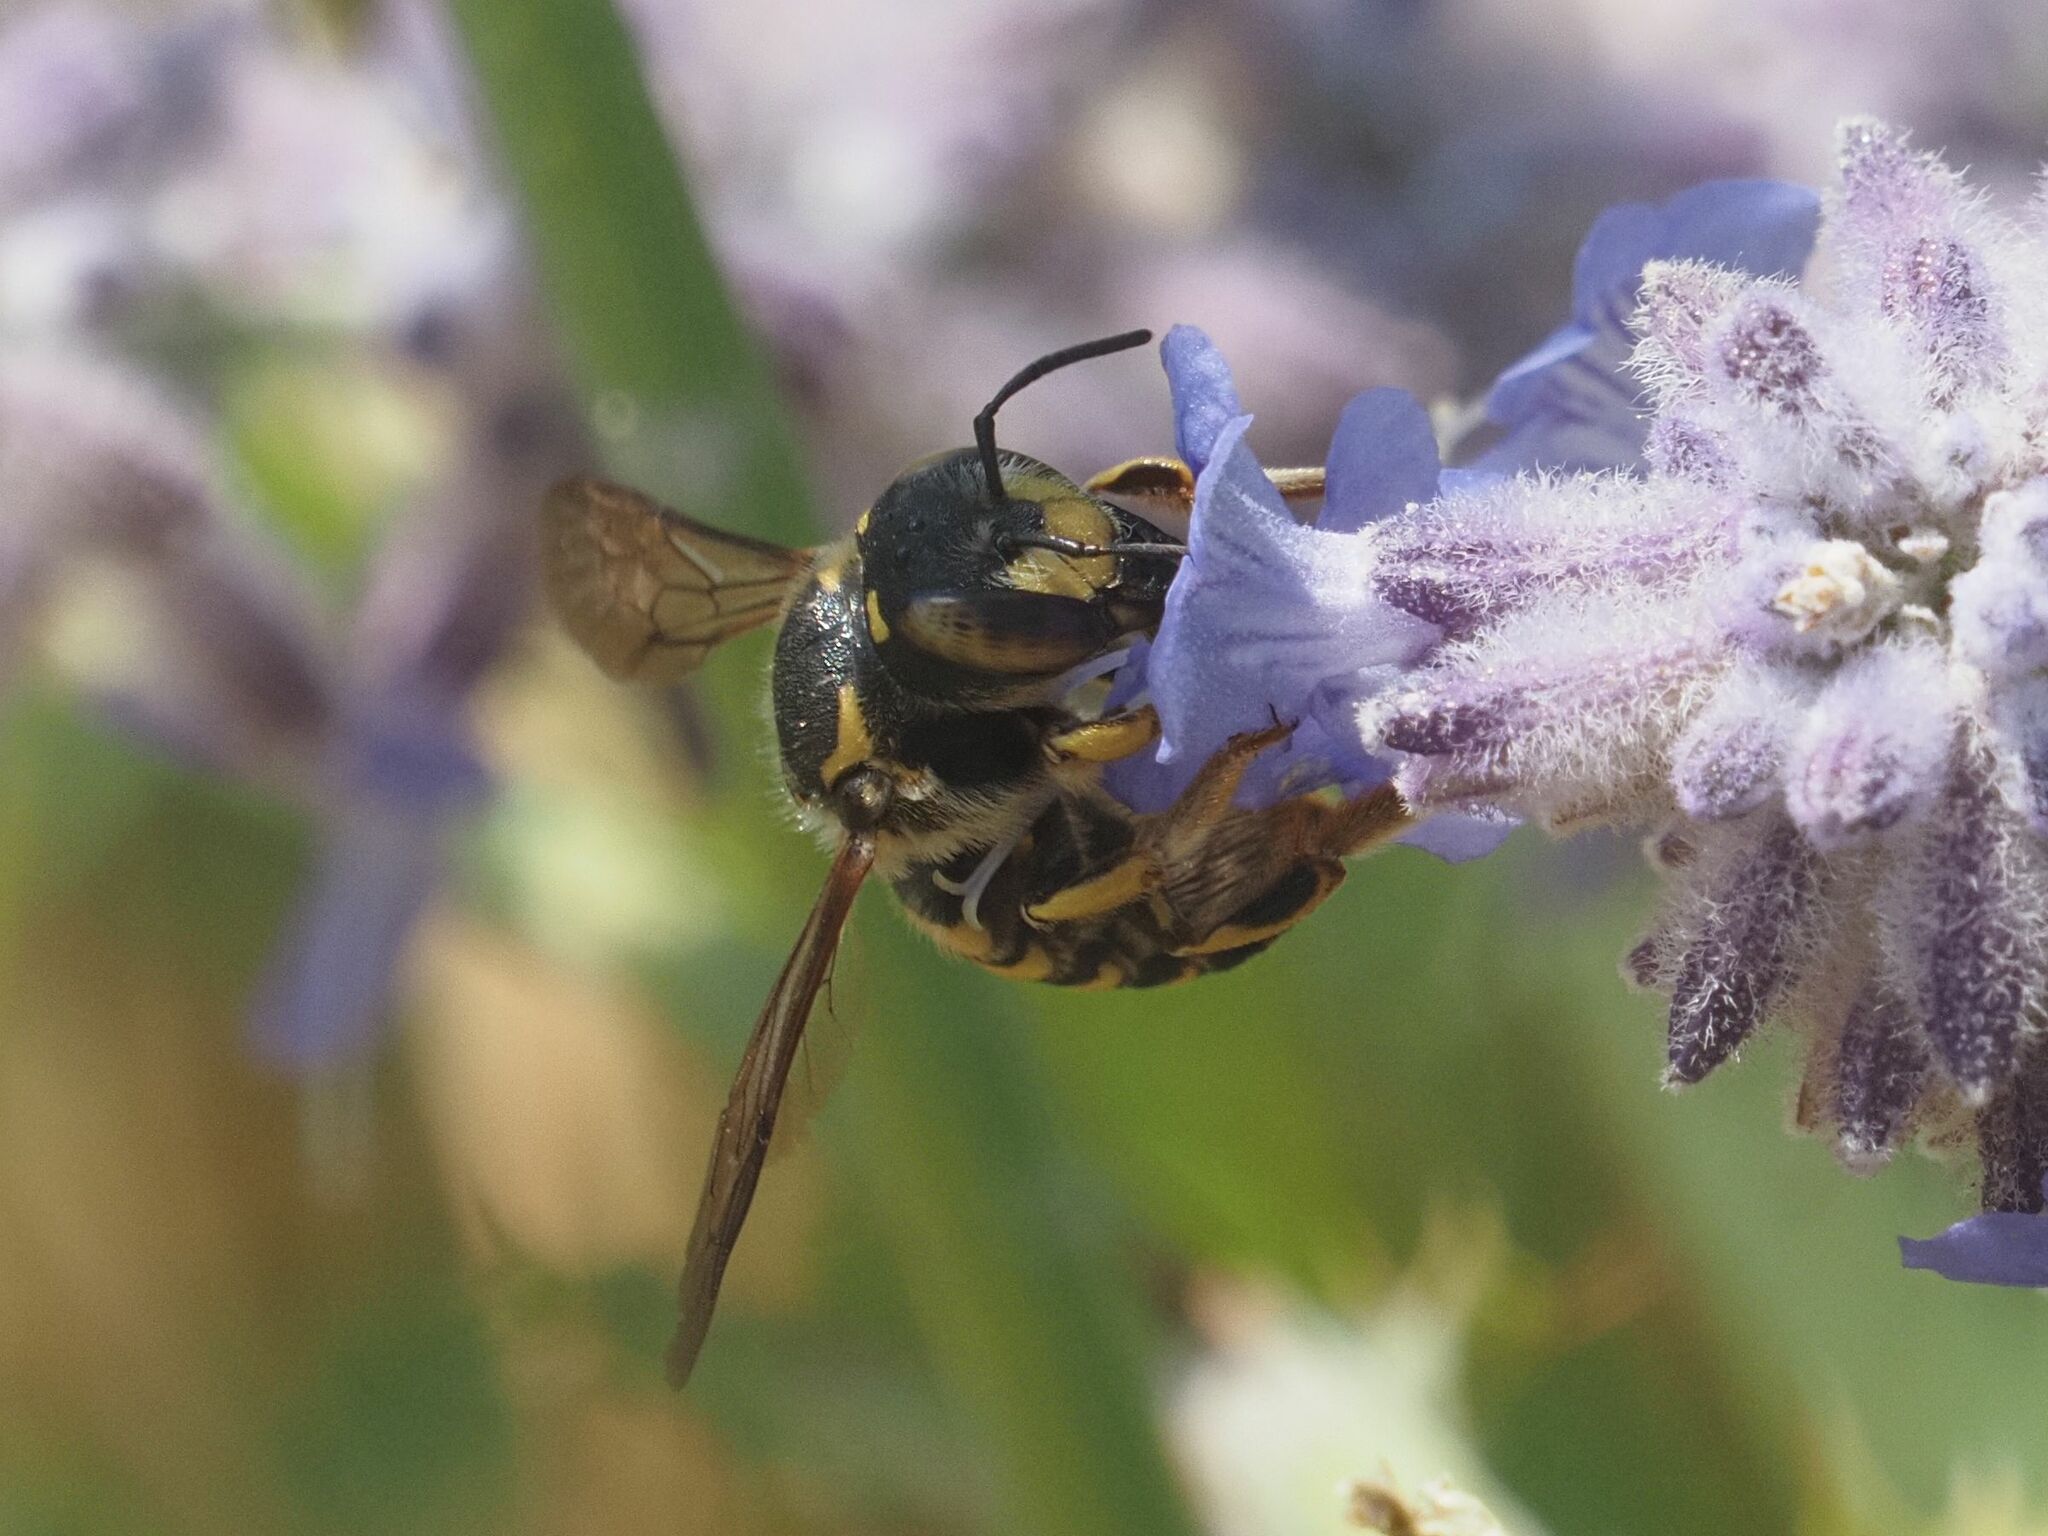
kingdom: Animalia
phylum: Arthropoda
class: Insecta
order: Hymenoptera
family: Megachilidae
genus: Anthidium
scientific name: Anthidium florentinum
